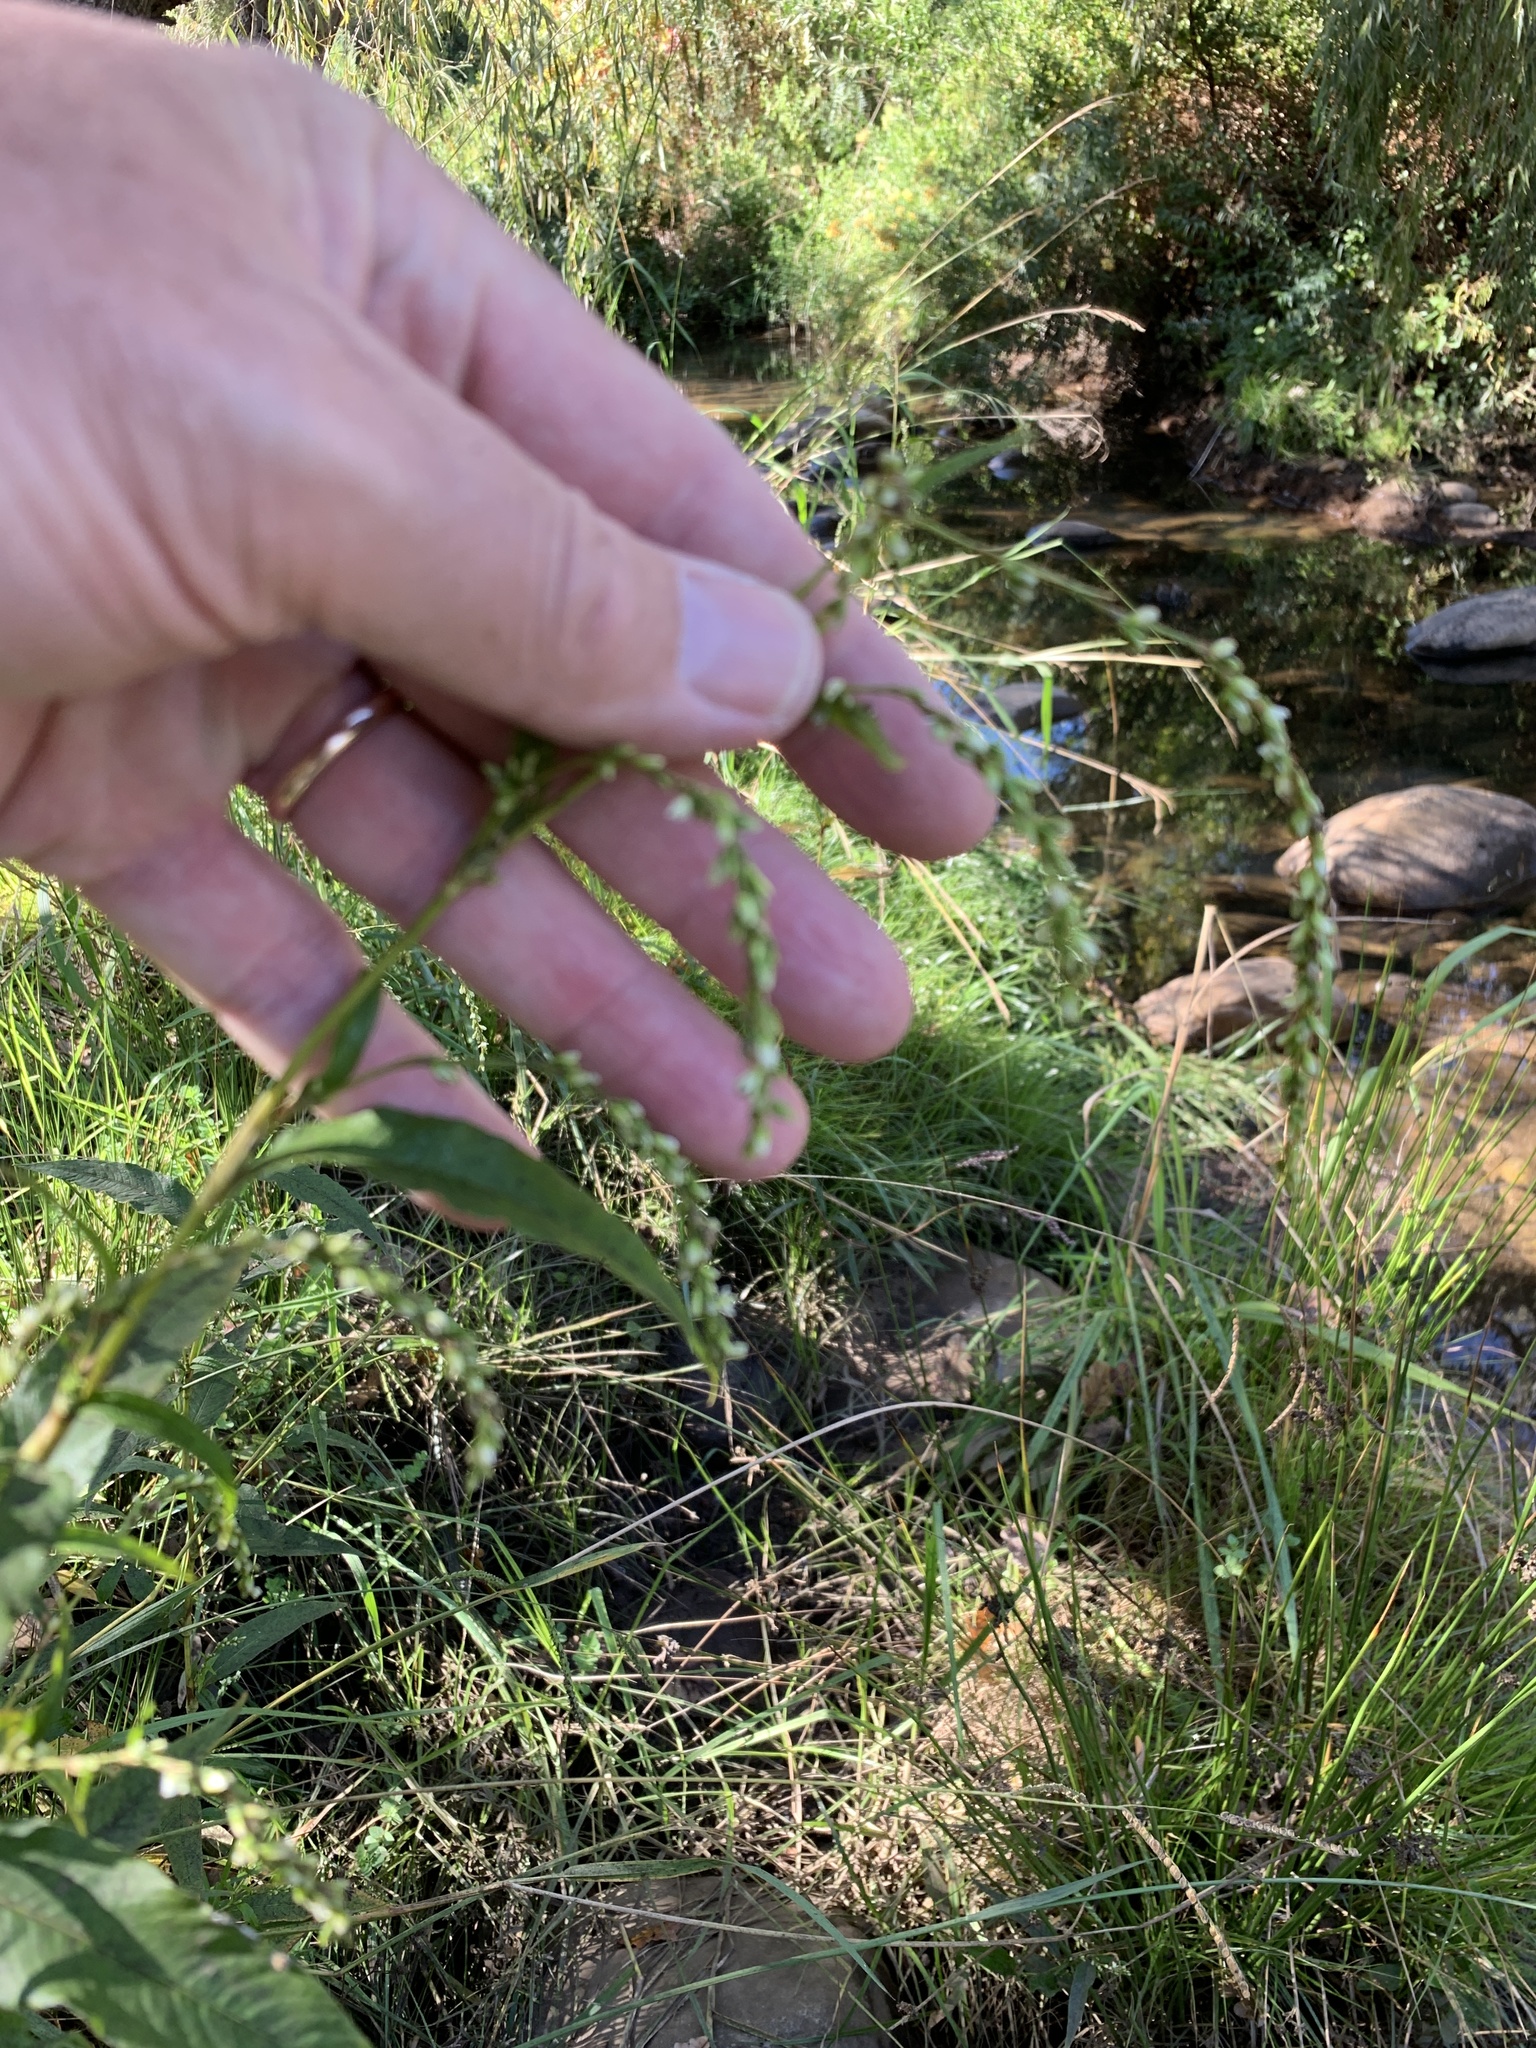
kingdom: Plantae
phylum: Tracheophyta
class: Magnoliopsida
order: Caryophyllales
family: Polygonaceae
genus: Persicaria
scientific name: Persicaria hydropiper
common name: Water-pepper
